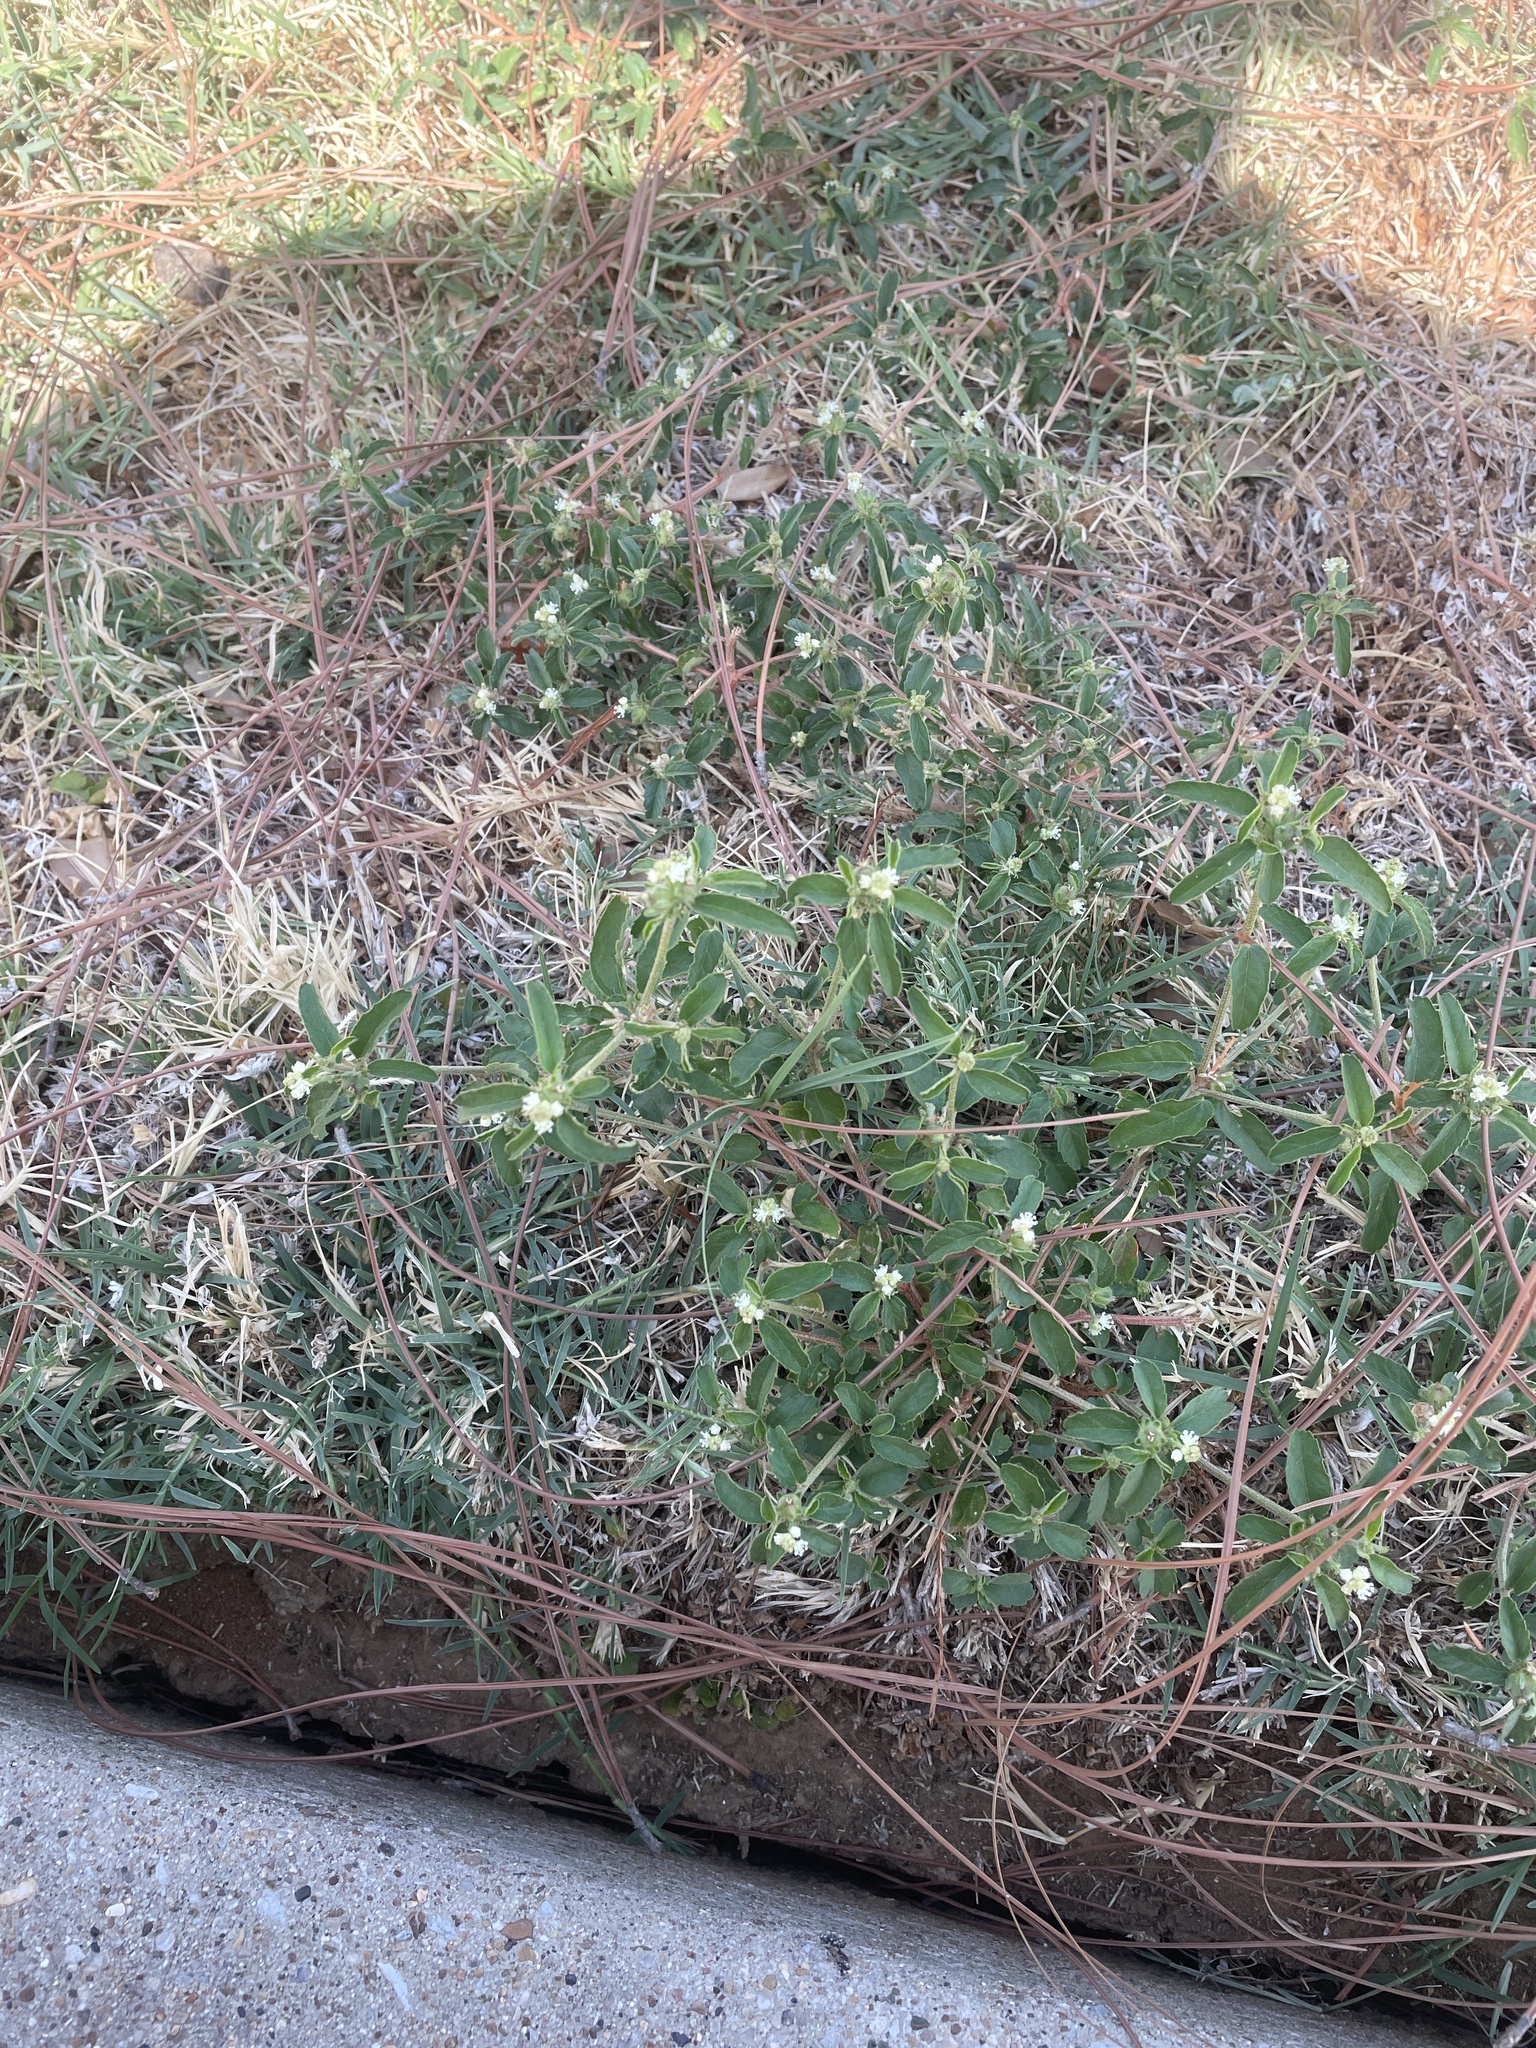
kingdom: Plantae
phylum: Tracheophyta
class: Magnoliopsida
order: Malpighiales
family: Euphorbiaceae
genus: Croton
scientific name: Croton glandulosus
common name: Tropic croton
